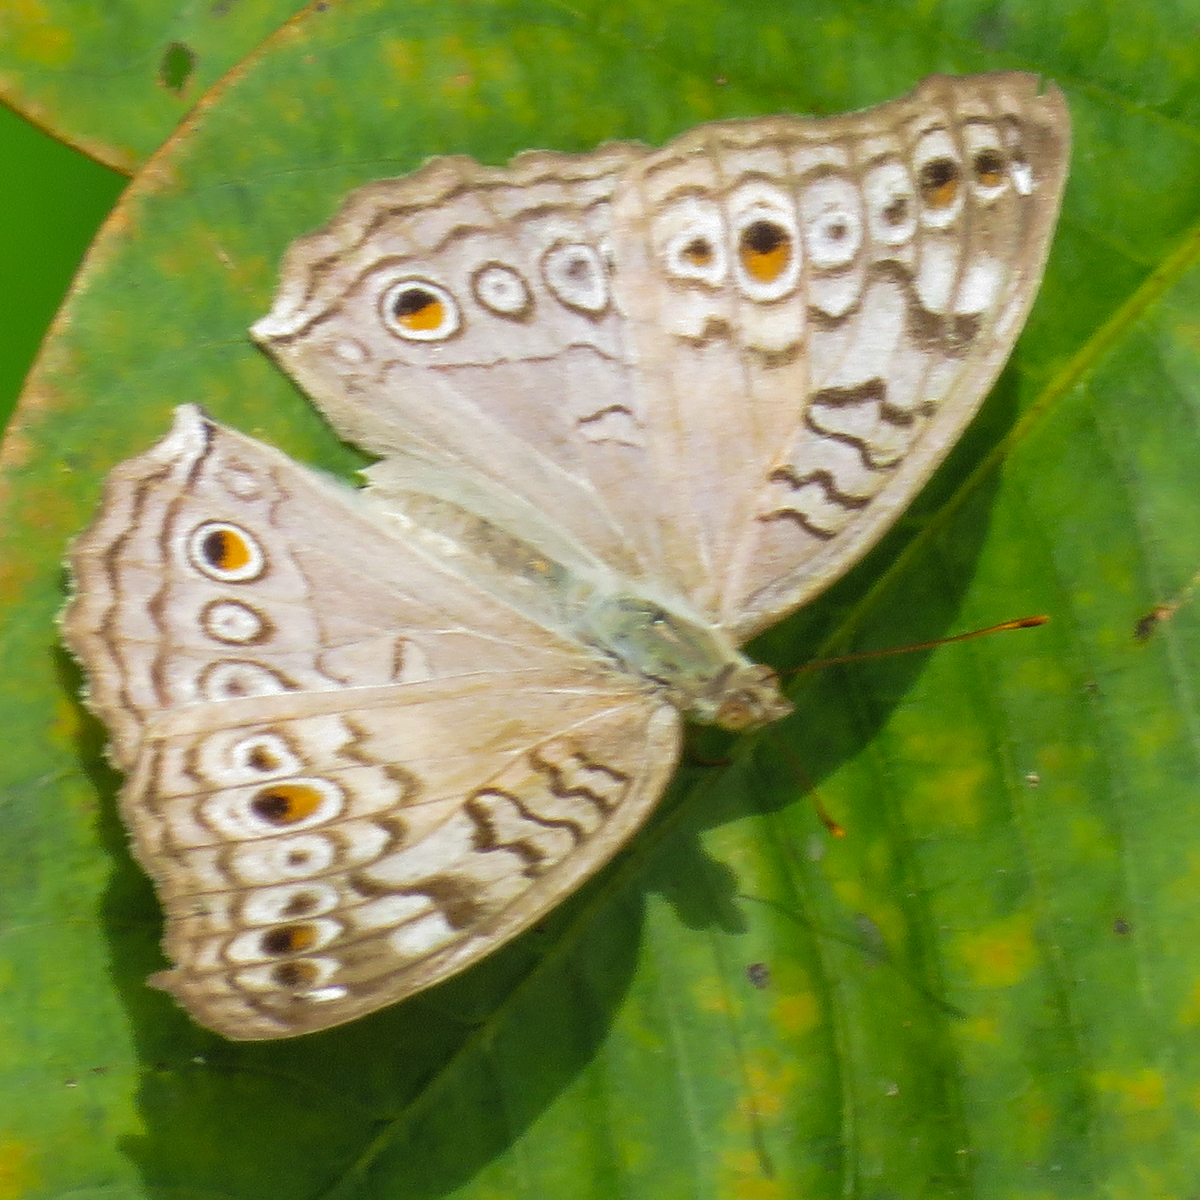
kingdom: Animalia
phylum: Arthropoda
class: Insecta
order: Lepidoptera
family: Nymphalidae
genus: Junonia
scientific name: Junonia atlites
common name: Grey pansy
